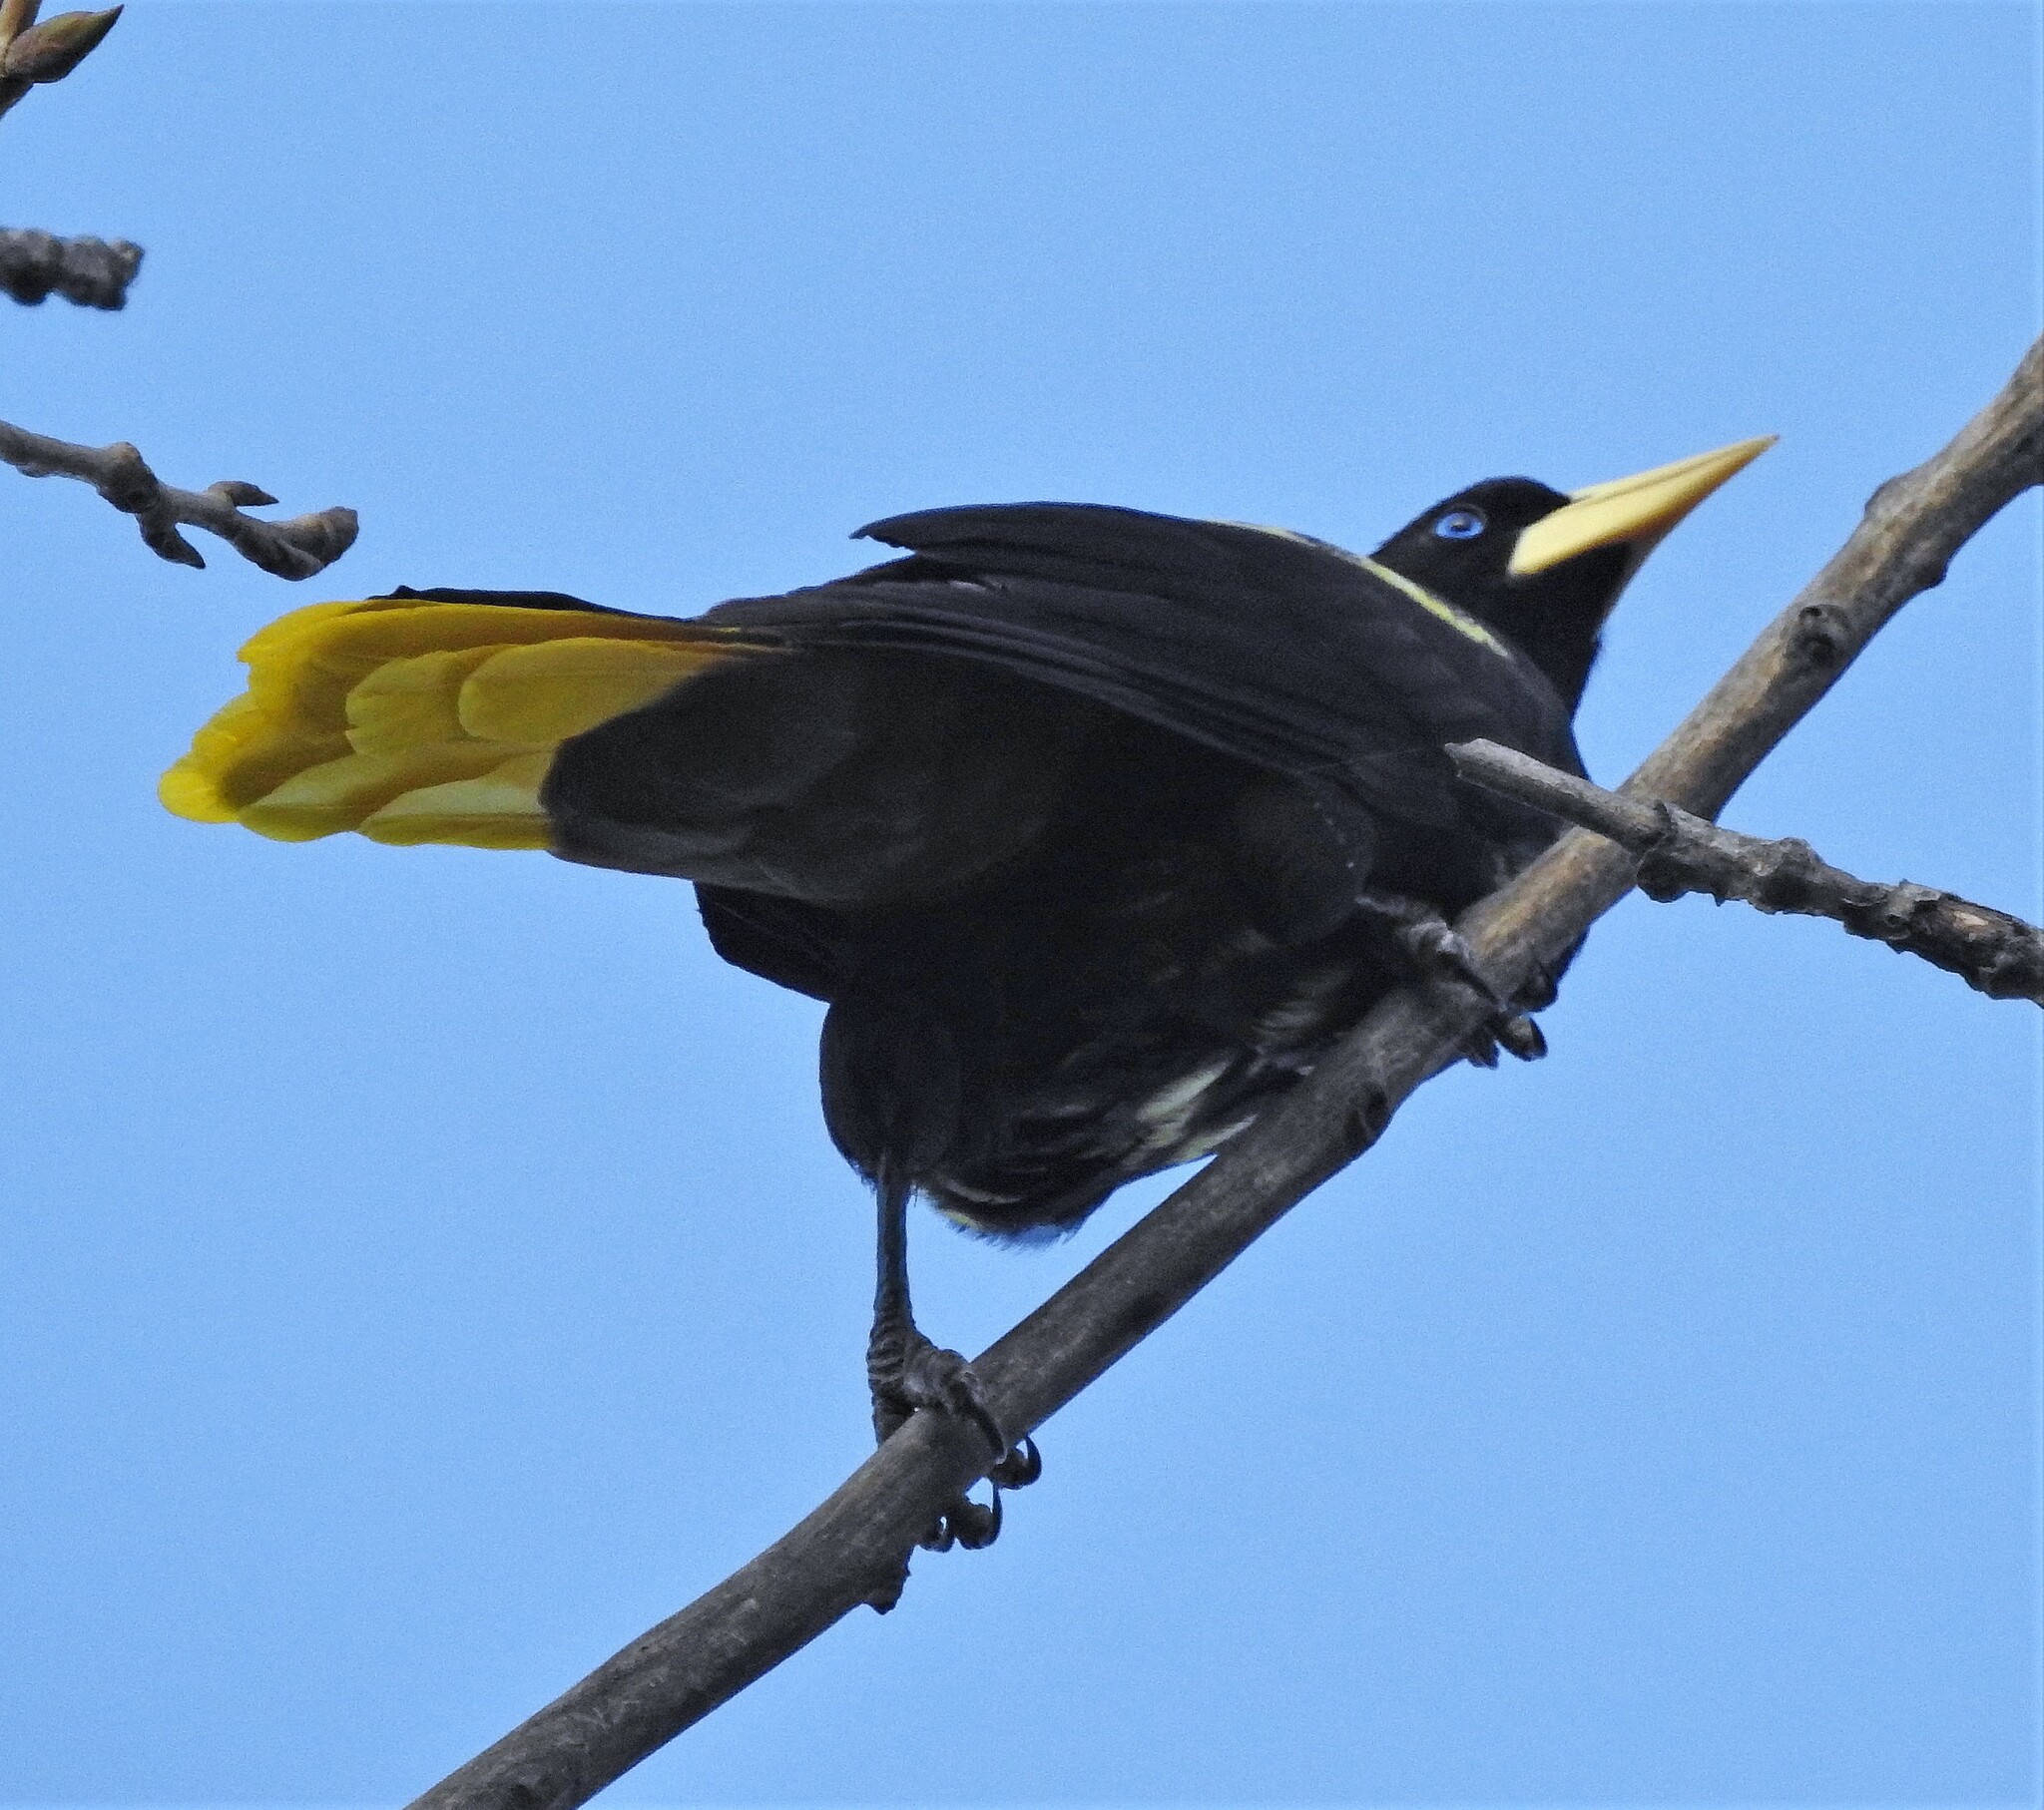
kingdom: Animalia
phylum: Chordata
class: Aves
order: Passeriformes
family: Icteridae
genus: Psarocolius
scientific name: Psarocolius decumanus
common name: Crested oropendola
